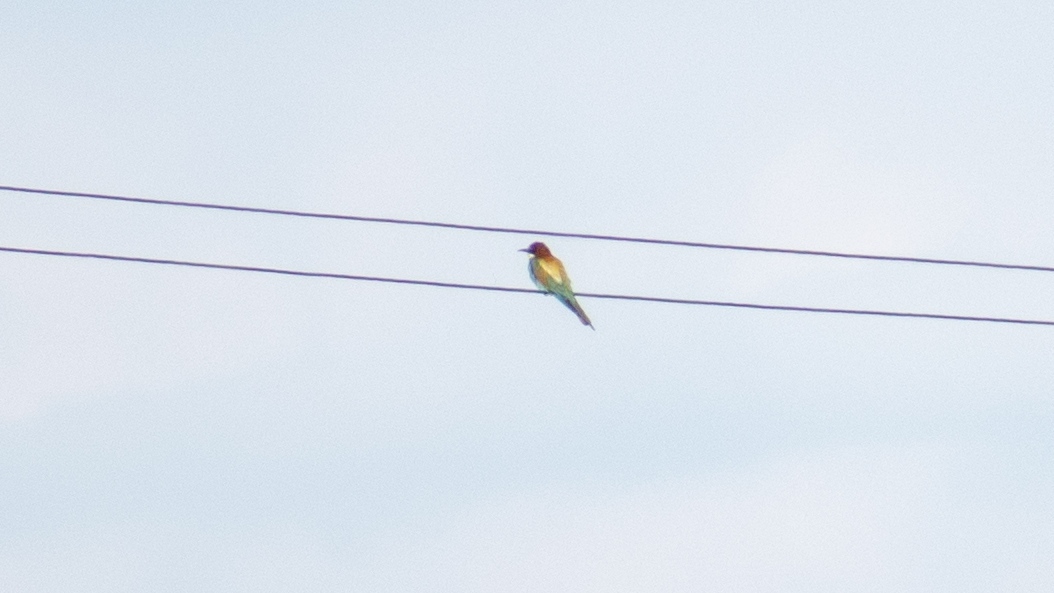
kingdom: Animalia
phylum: Chordata
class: Aves
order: Coraciiformes
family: Meropidae
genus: Merops
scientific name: Merops apiaster
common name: European bee-eater
